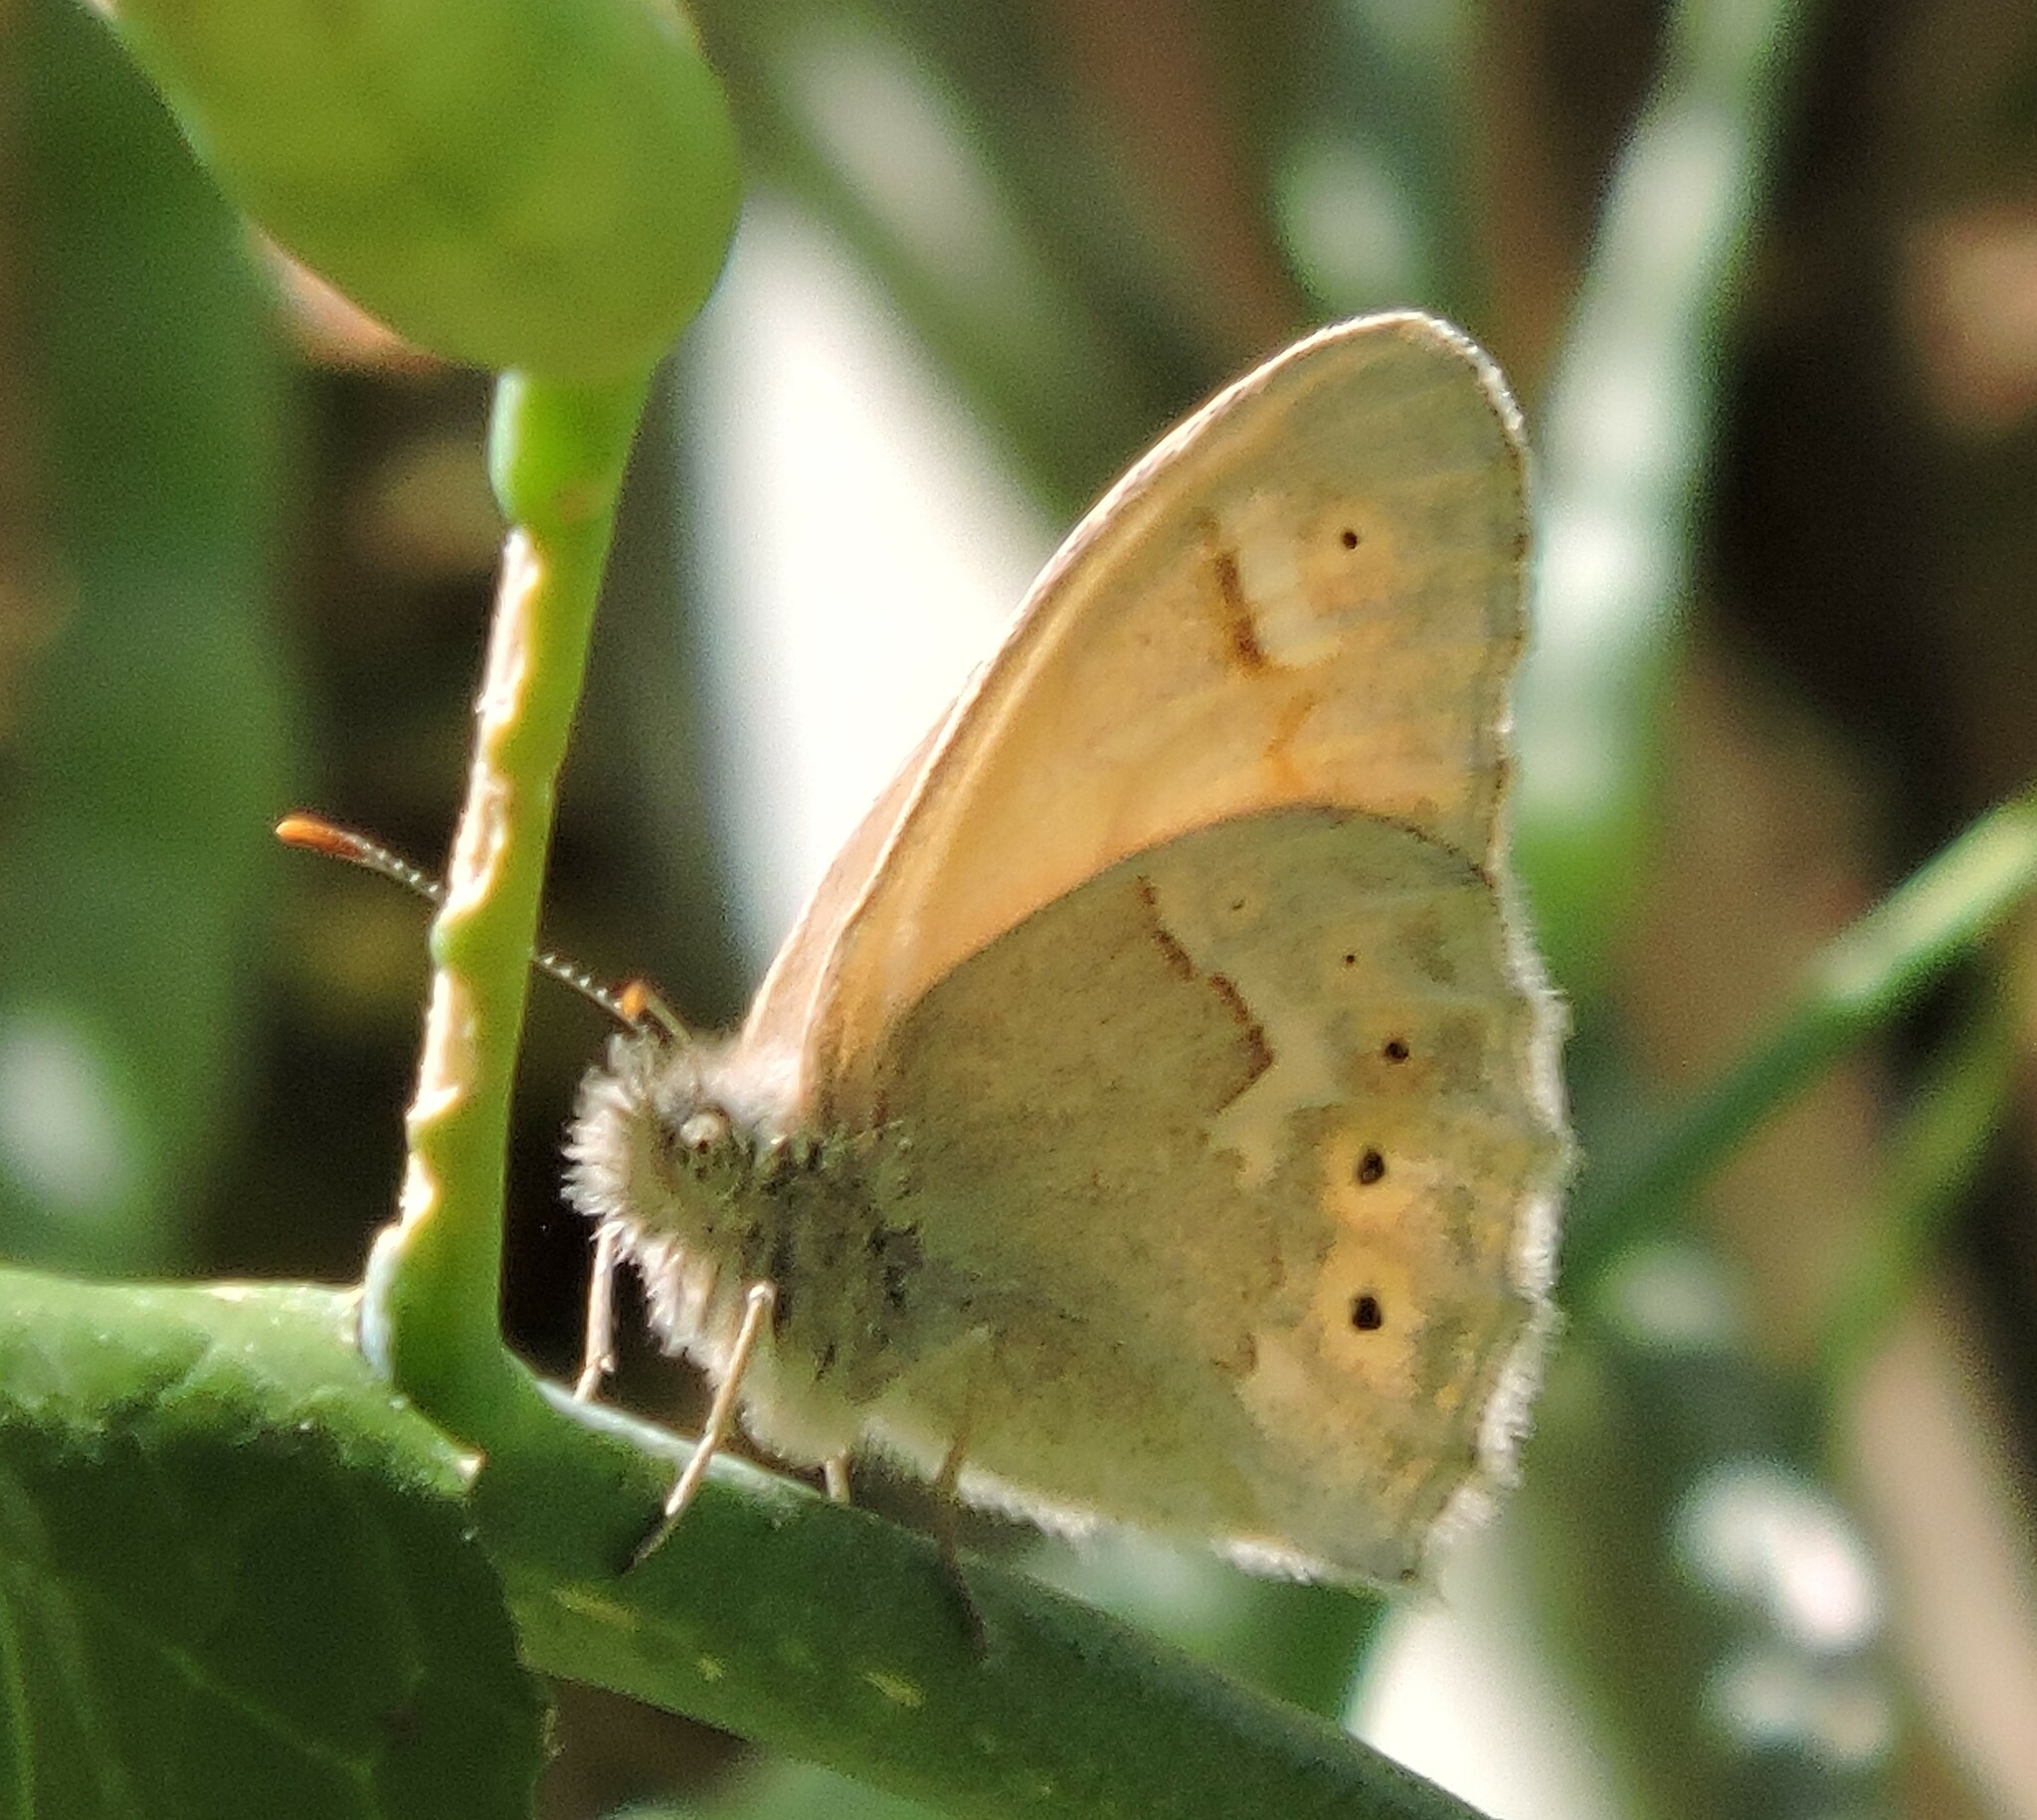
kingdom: Animalia
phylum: Arthropoda
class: Insecta
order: Lepidoptera
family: Nymphalidae
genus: Coenonympha
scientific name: Coenonympha california
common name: Common ringlet
